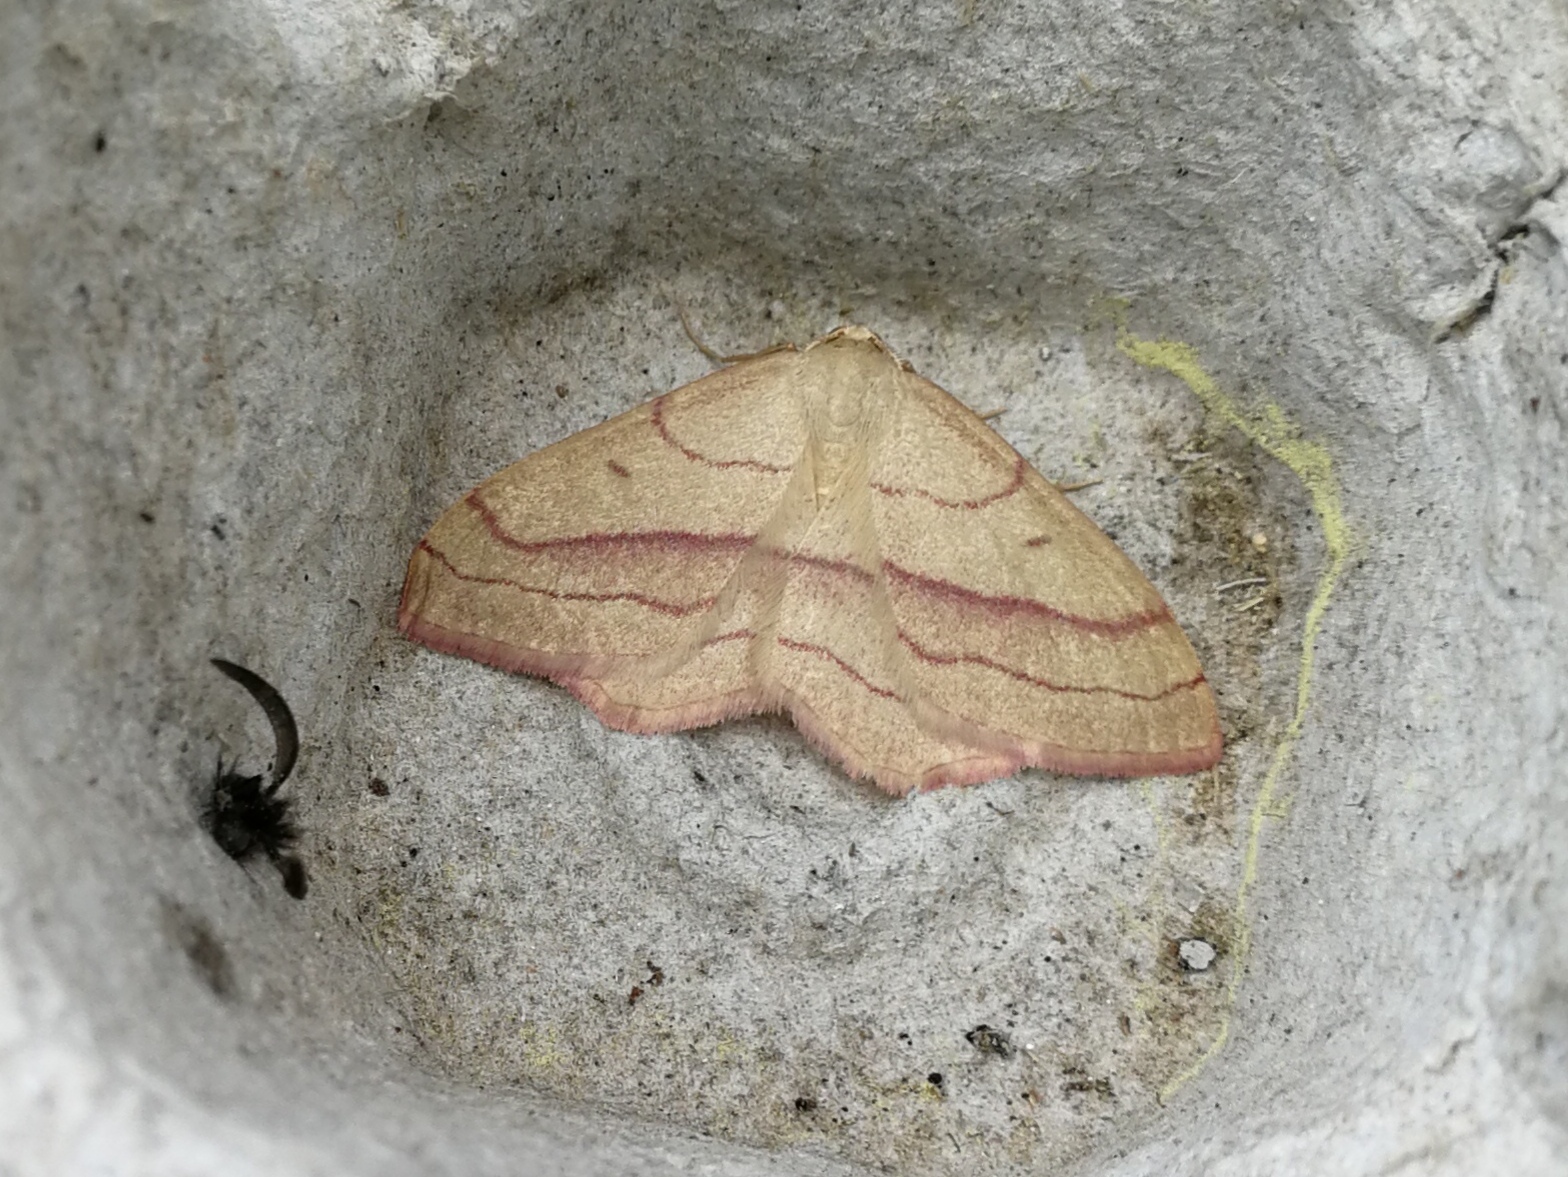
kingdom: Animalia
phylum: Arthropoda
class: Insecta
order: Lepidoptera
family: Geometridae
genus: Rhodostrophia
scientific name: Rhodostrophia vibicaria
